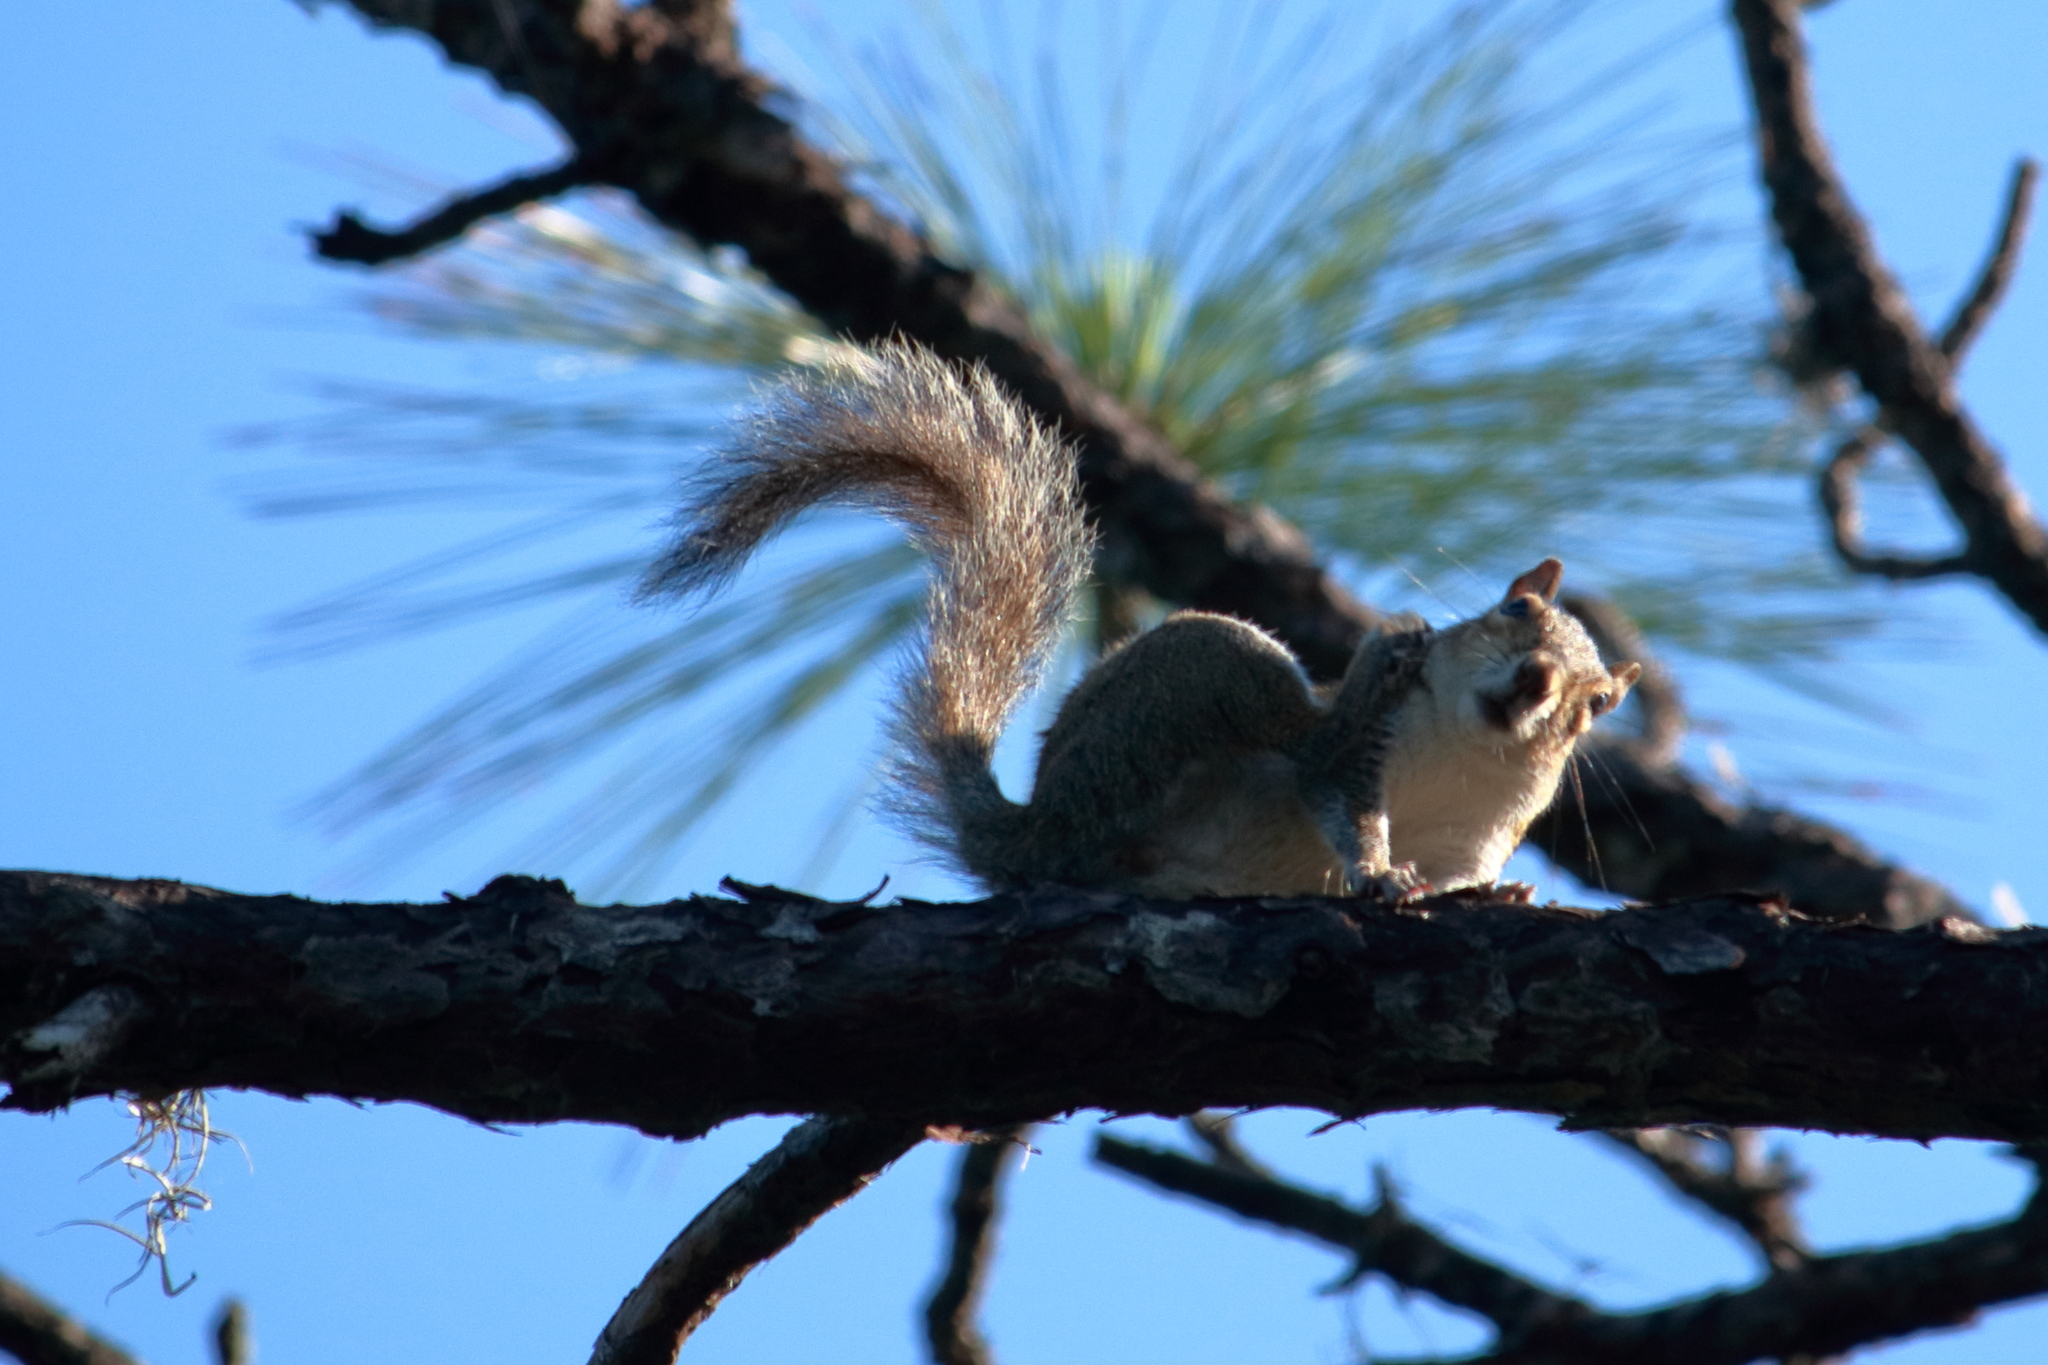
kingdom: Animalia
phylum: Chordata
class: Mammalia
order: Rodentia
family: Sciuridae
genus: Sciurus
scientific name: Sciurus carolinensis
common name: Eastern gray squirrel
